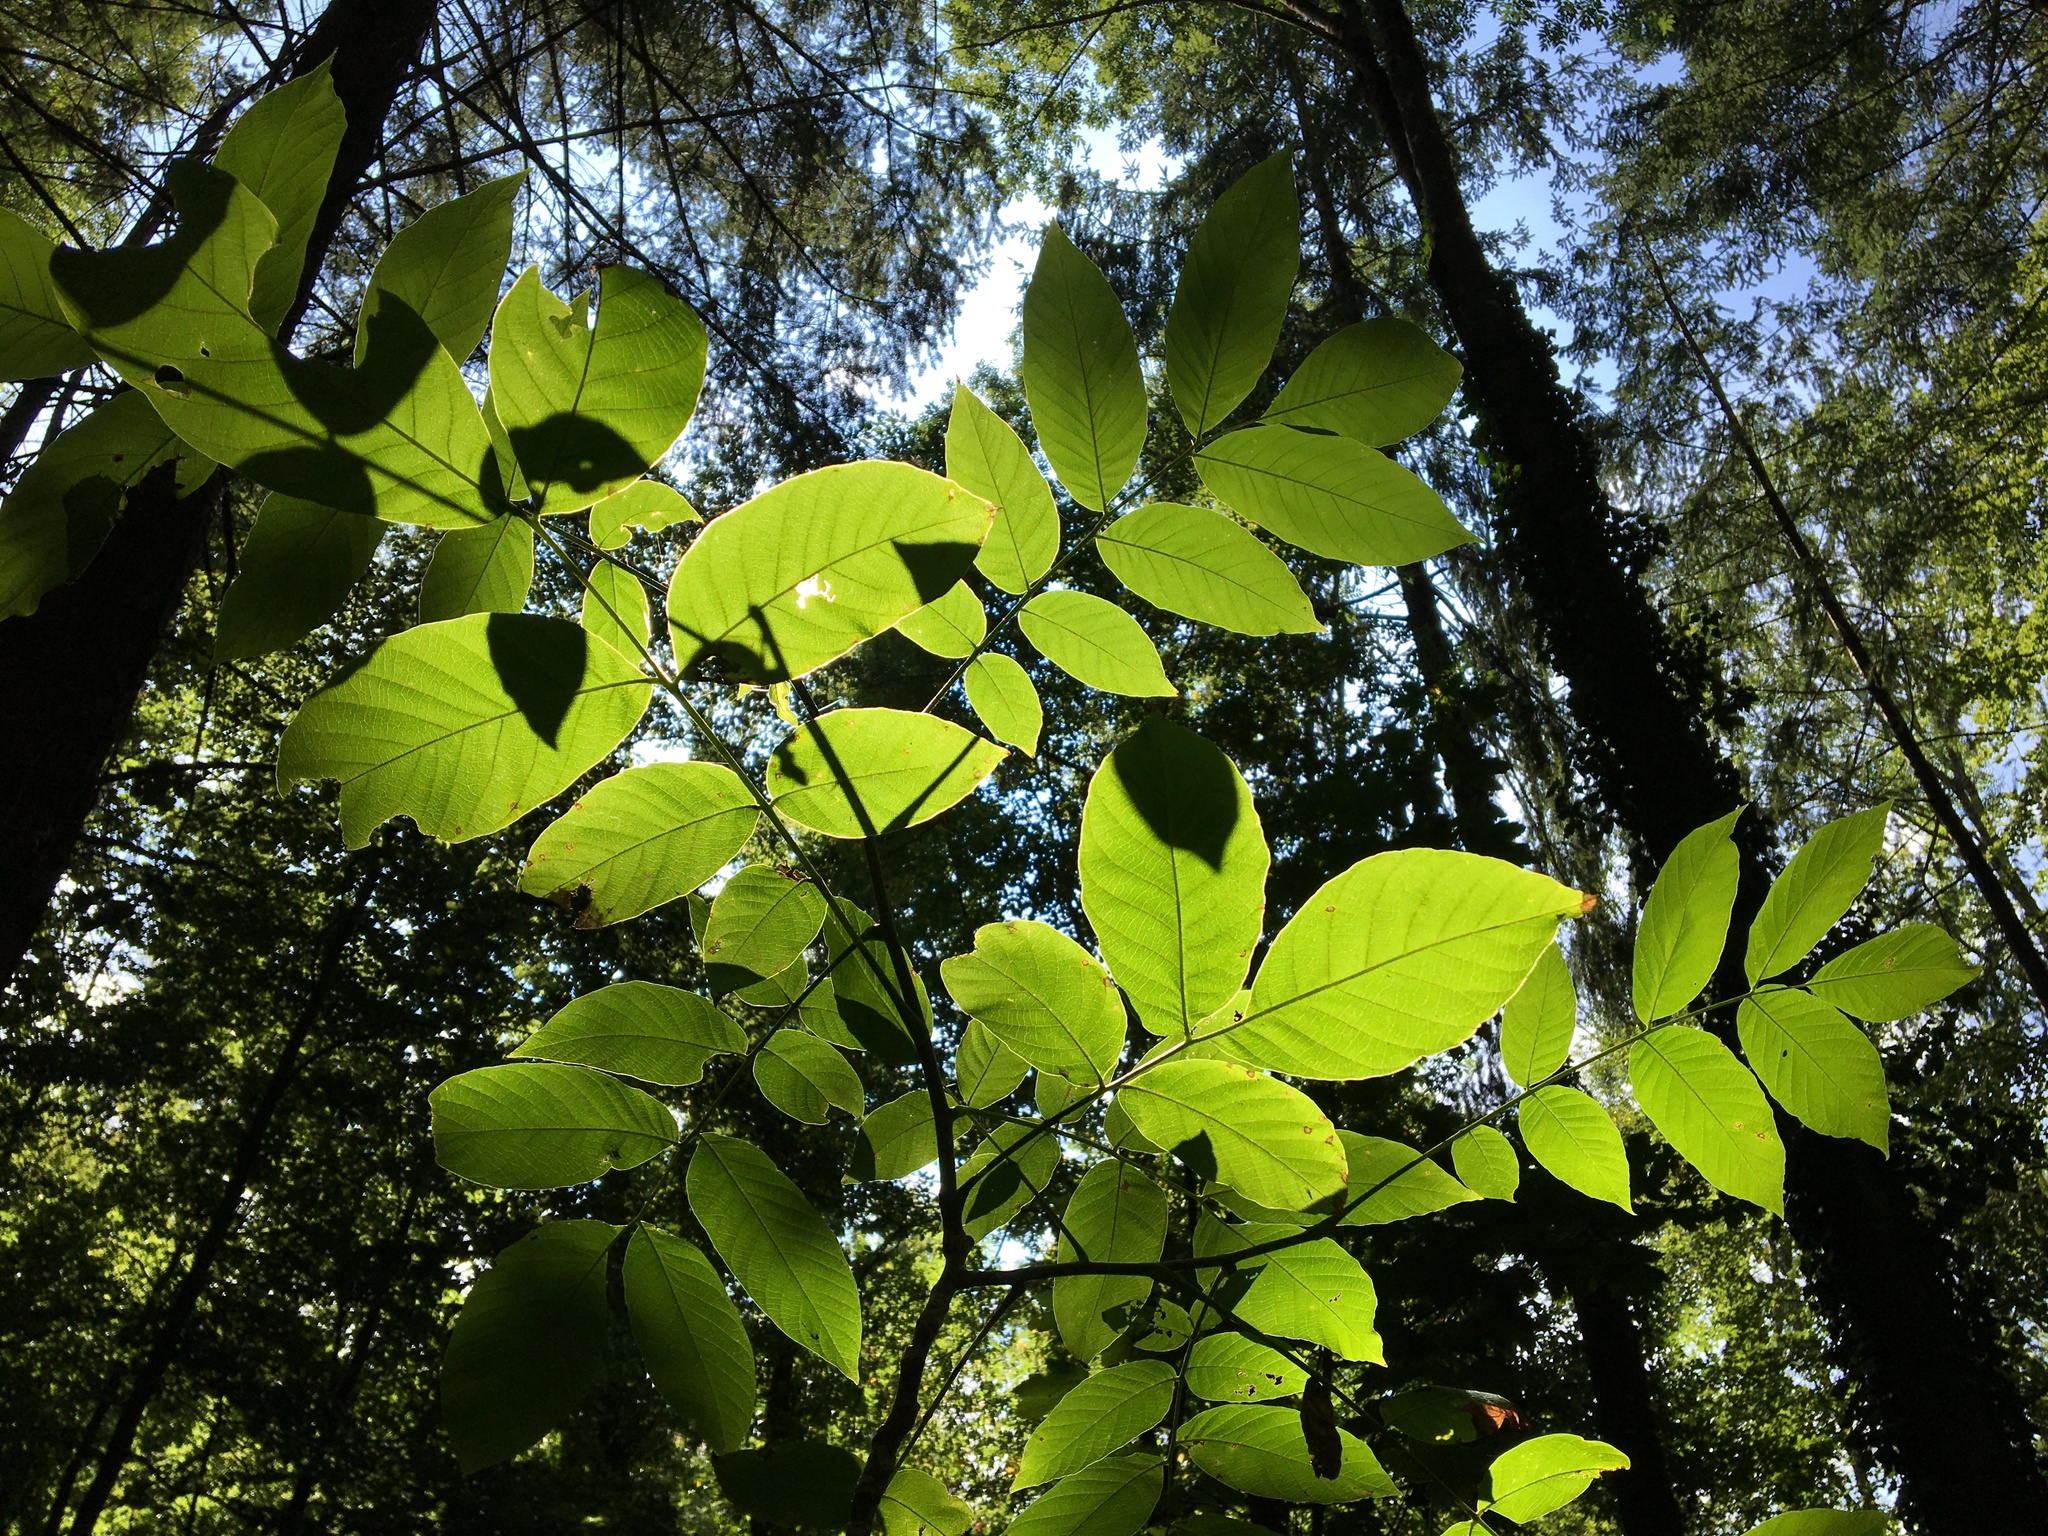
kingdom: Plantae
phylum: Tracheophyta
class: Magnoliopsida
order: Fagales
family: Juglandaceae
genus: Juglans
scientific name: Juglans regia
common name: Walnut
